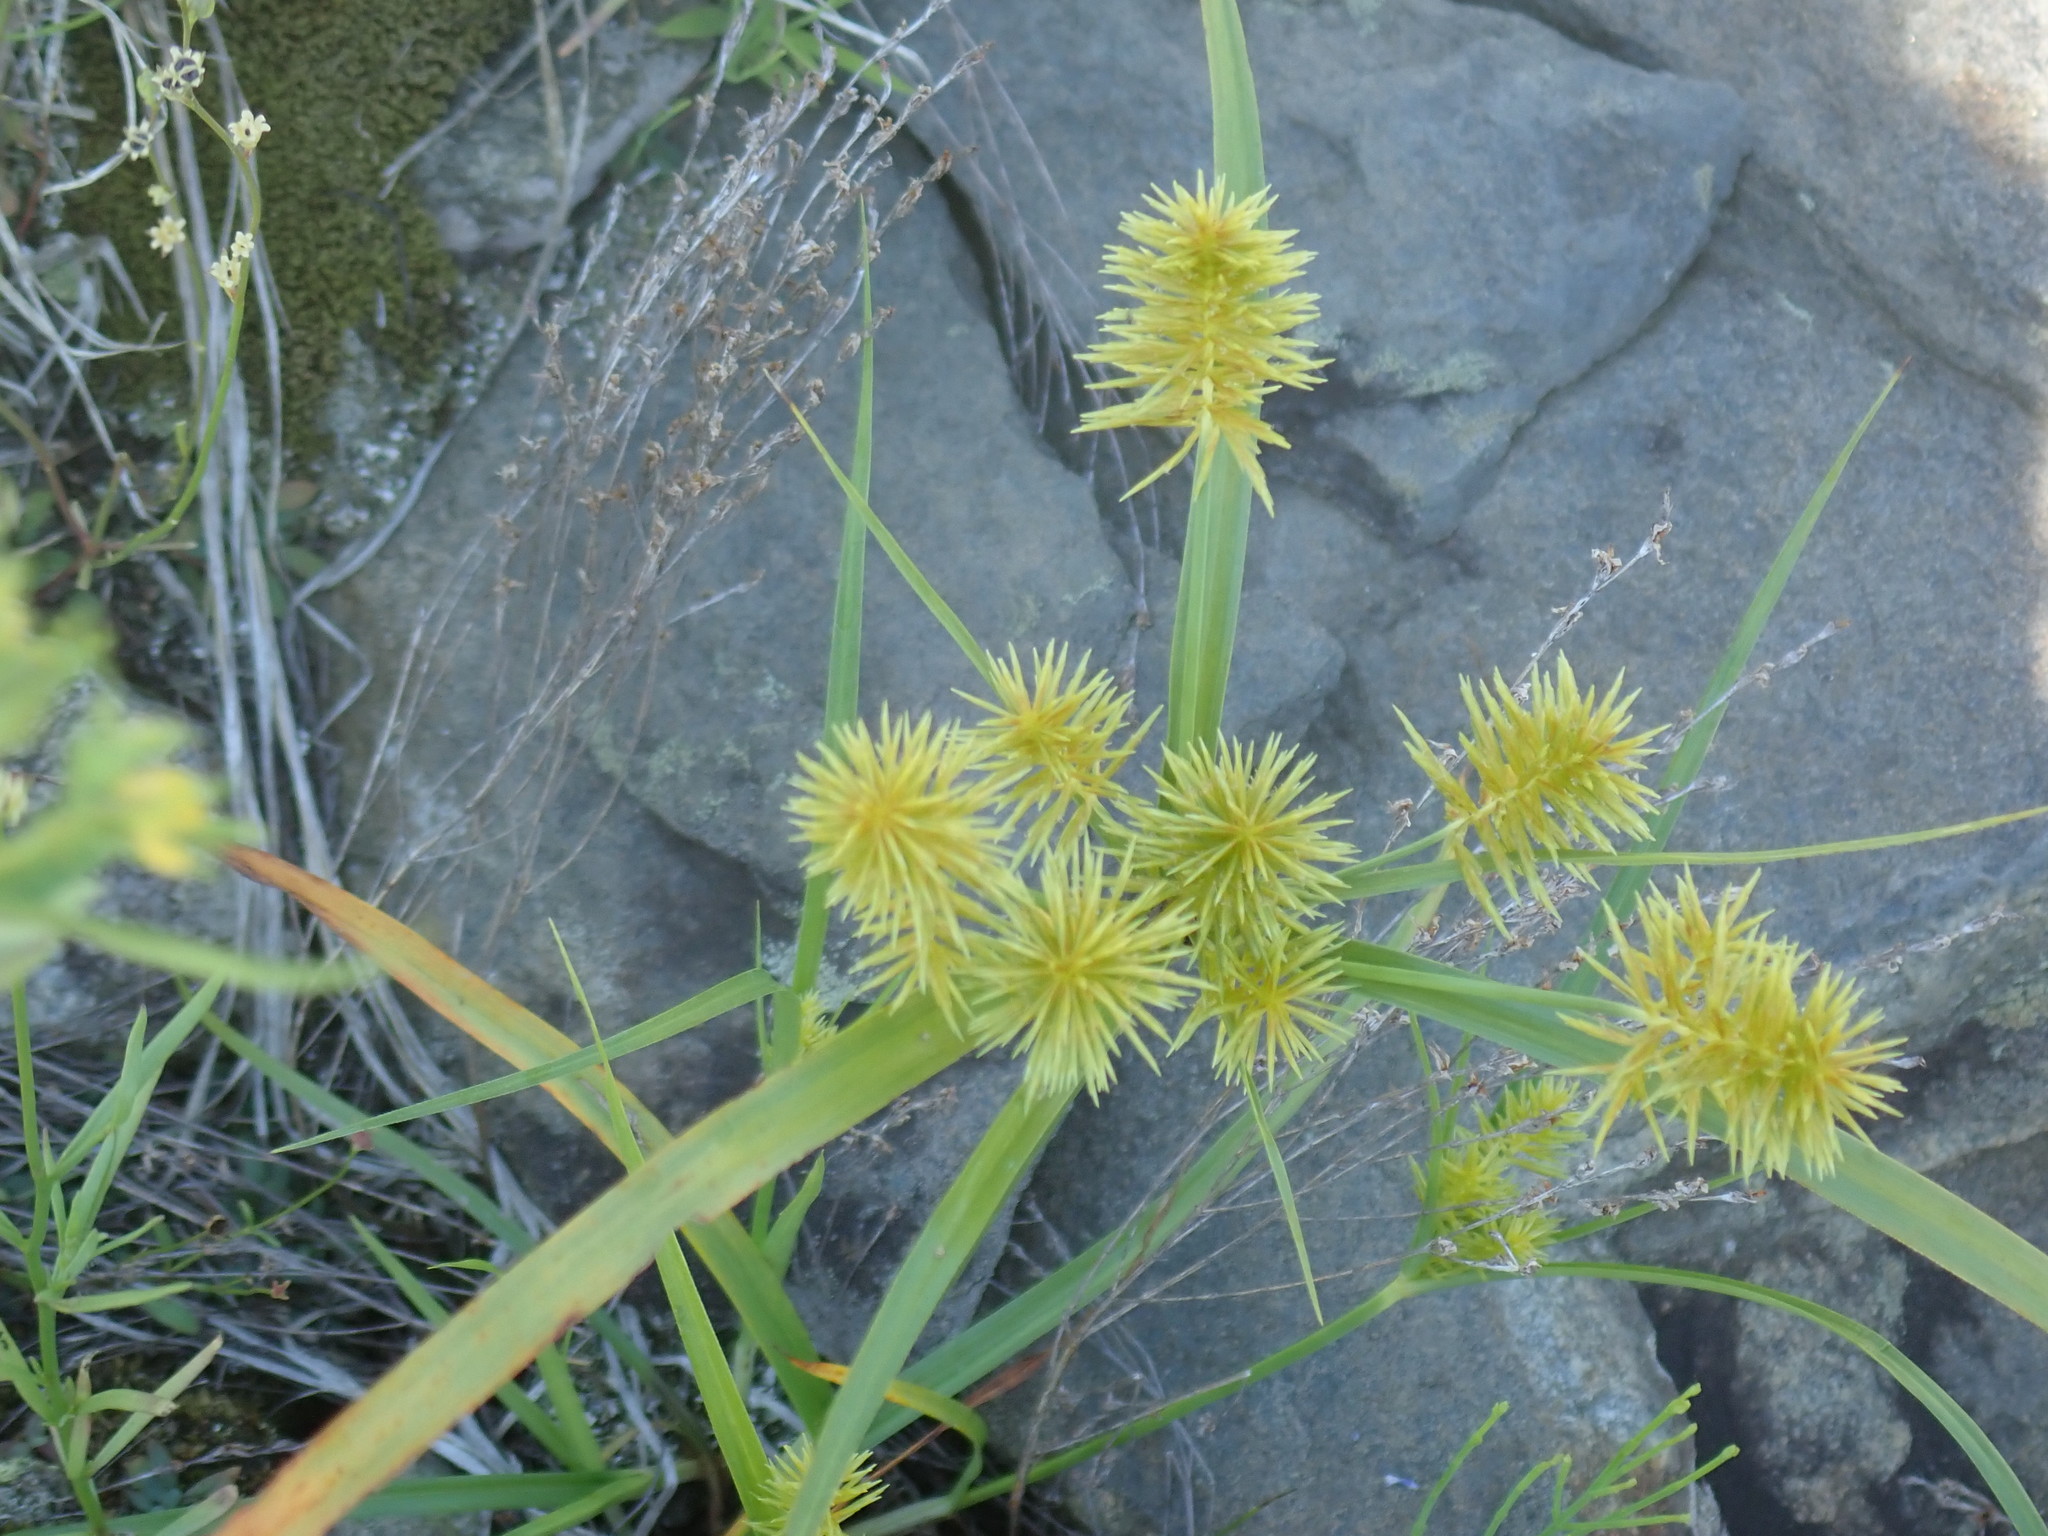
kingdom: Plantae
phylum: Tracheophyta
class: Liliopsida
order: Poales
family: Cyperaceae
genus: Cyperus
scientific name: Cyperus
